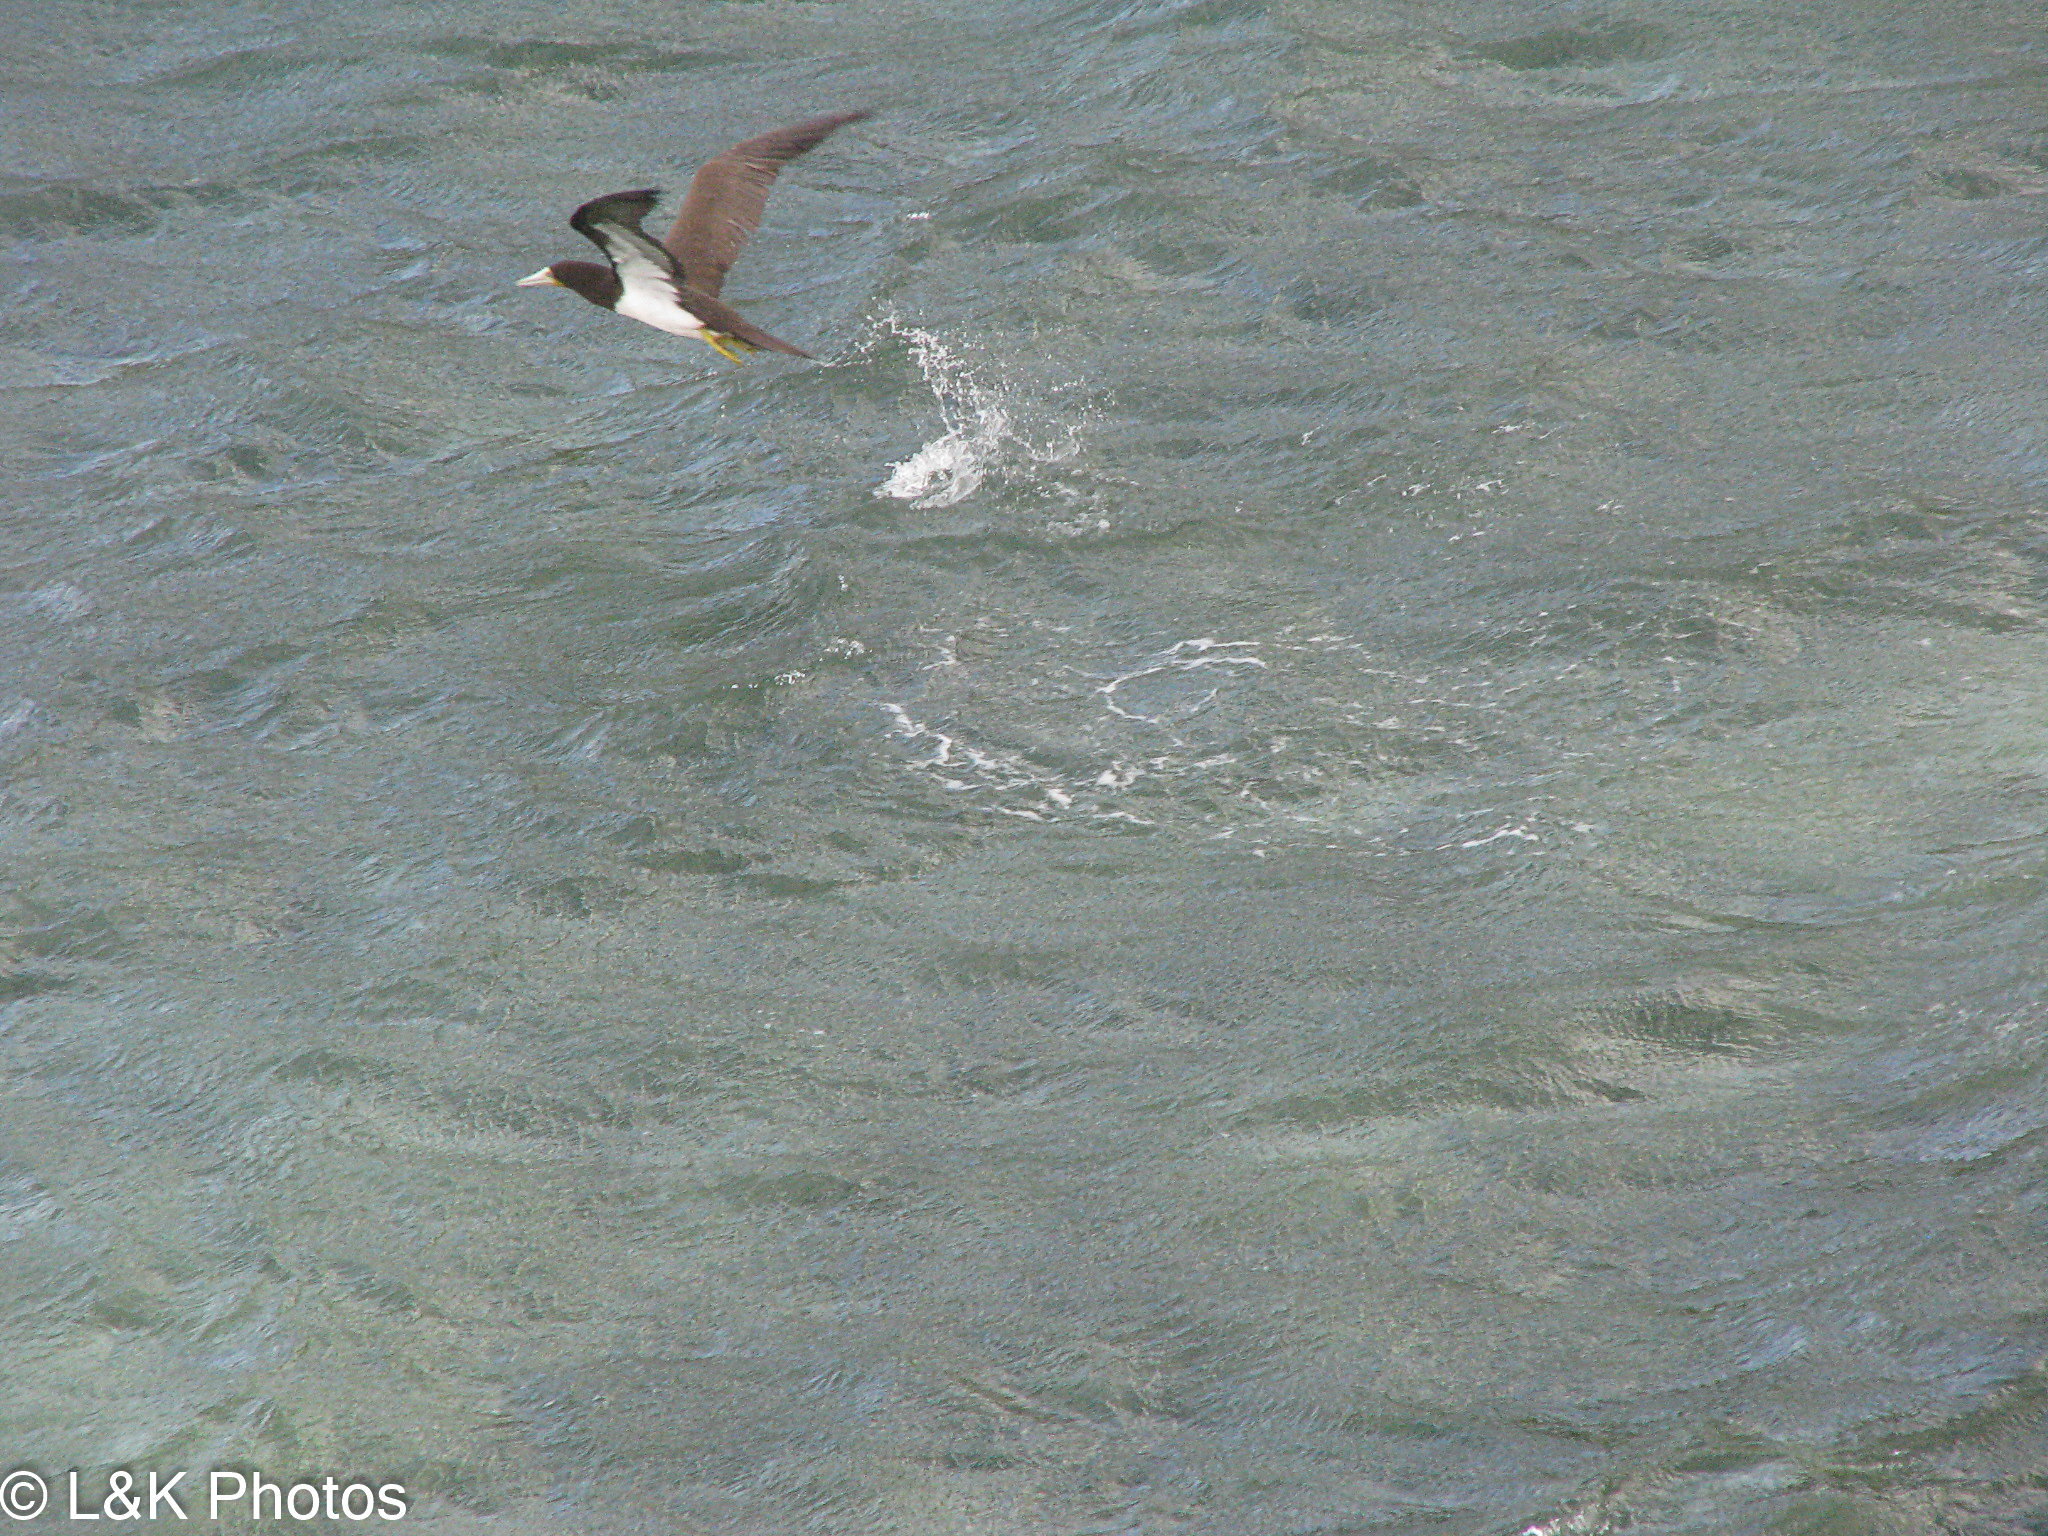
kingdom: Animalia
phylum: Chordata
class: Aves
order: Suliformes
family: Sulidae
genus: Sula
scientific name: Sula leucogaster
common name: Brown booby
